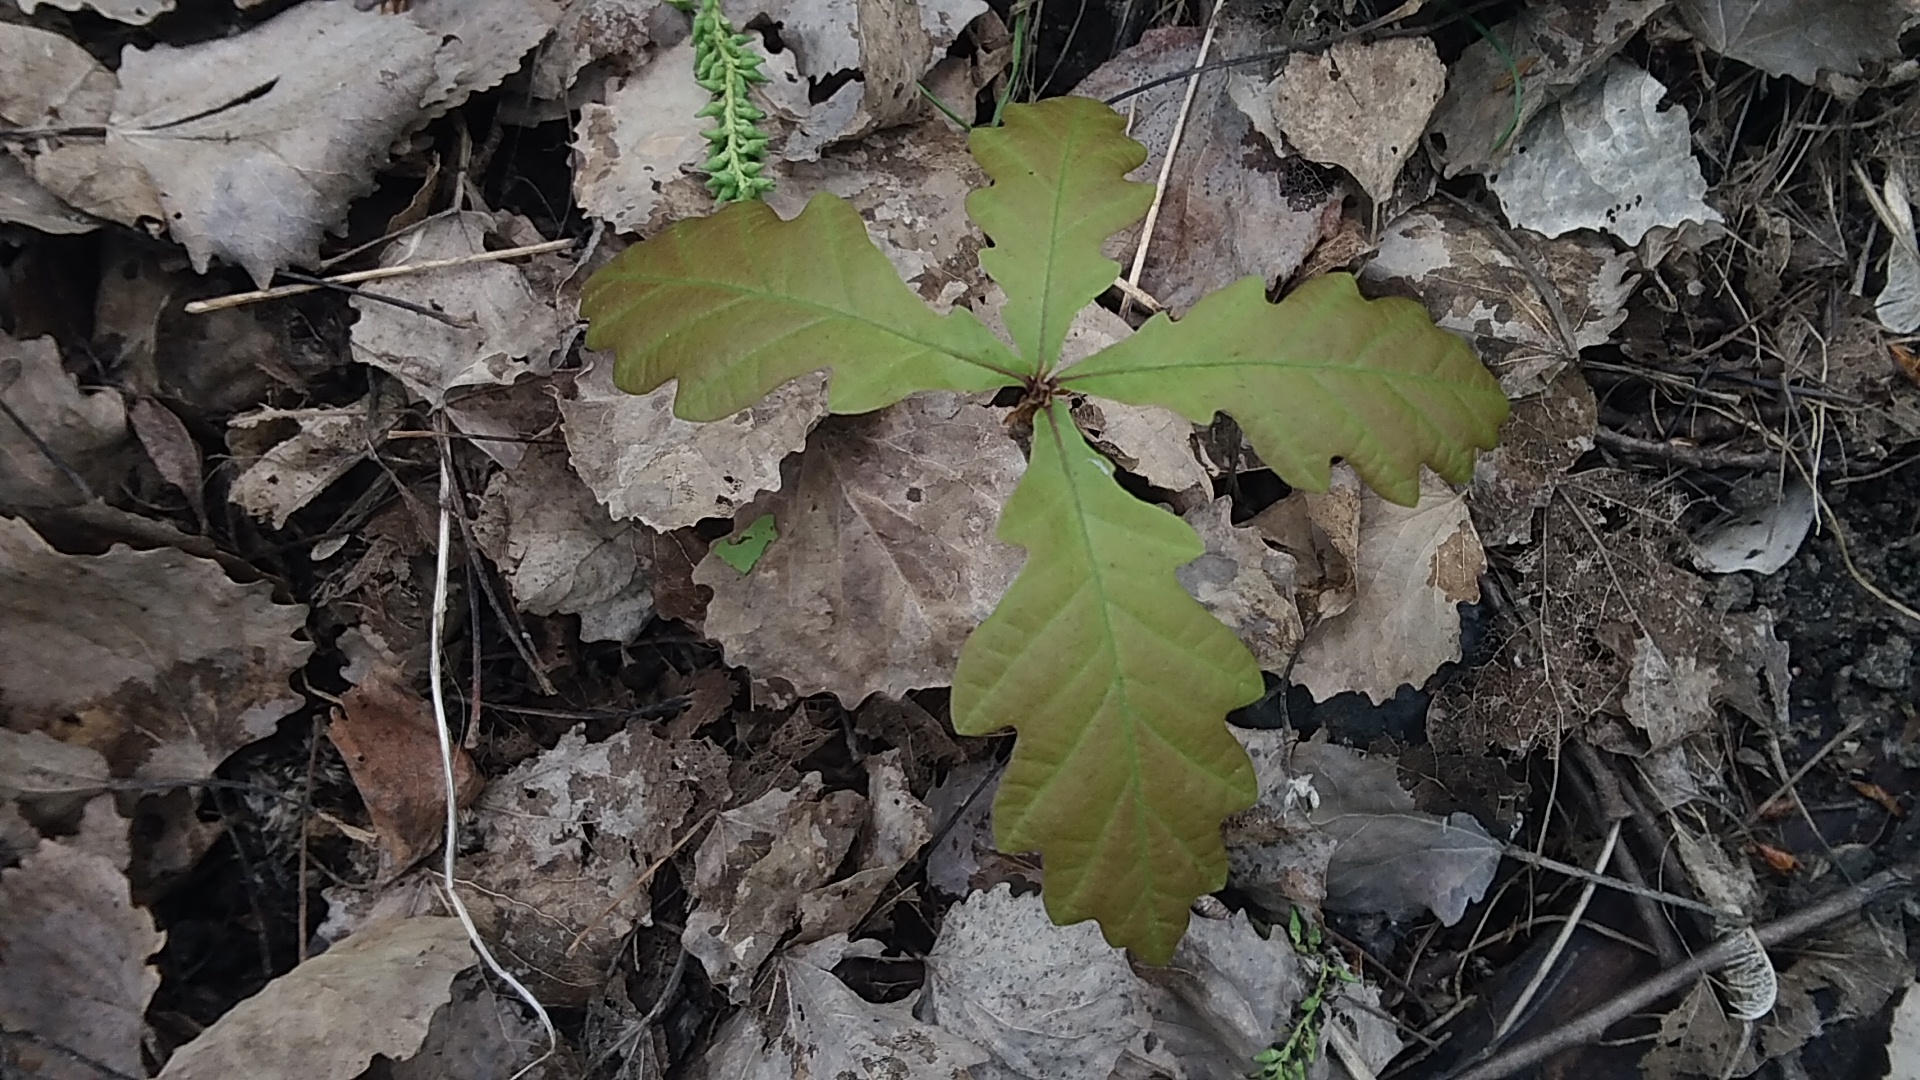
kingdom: Plantae
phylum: Tracheophyta
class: Magnoliopsida
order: Fagales
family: Fagaceae
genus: Quercus
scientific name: Quercus robur
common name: Pedunculate oak
